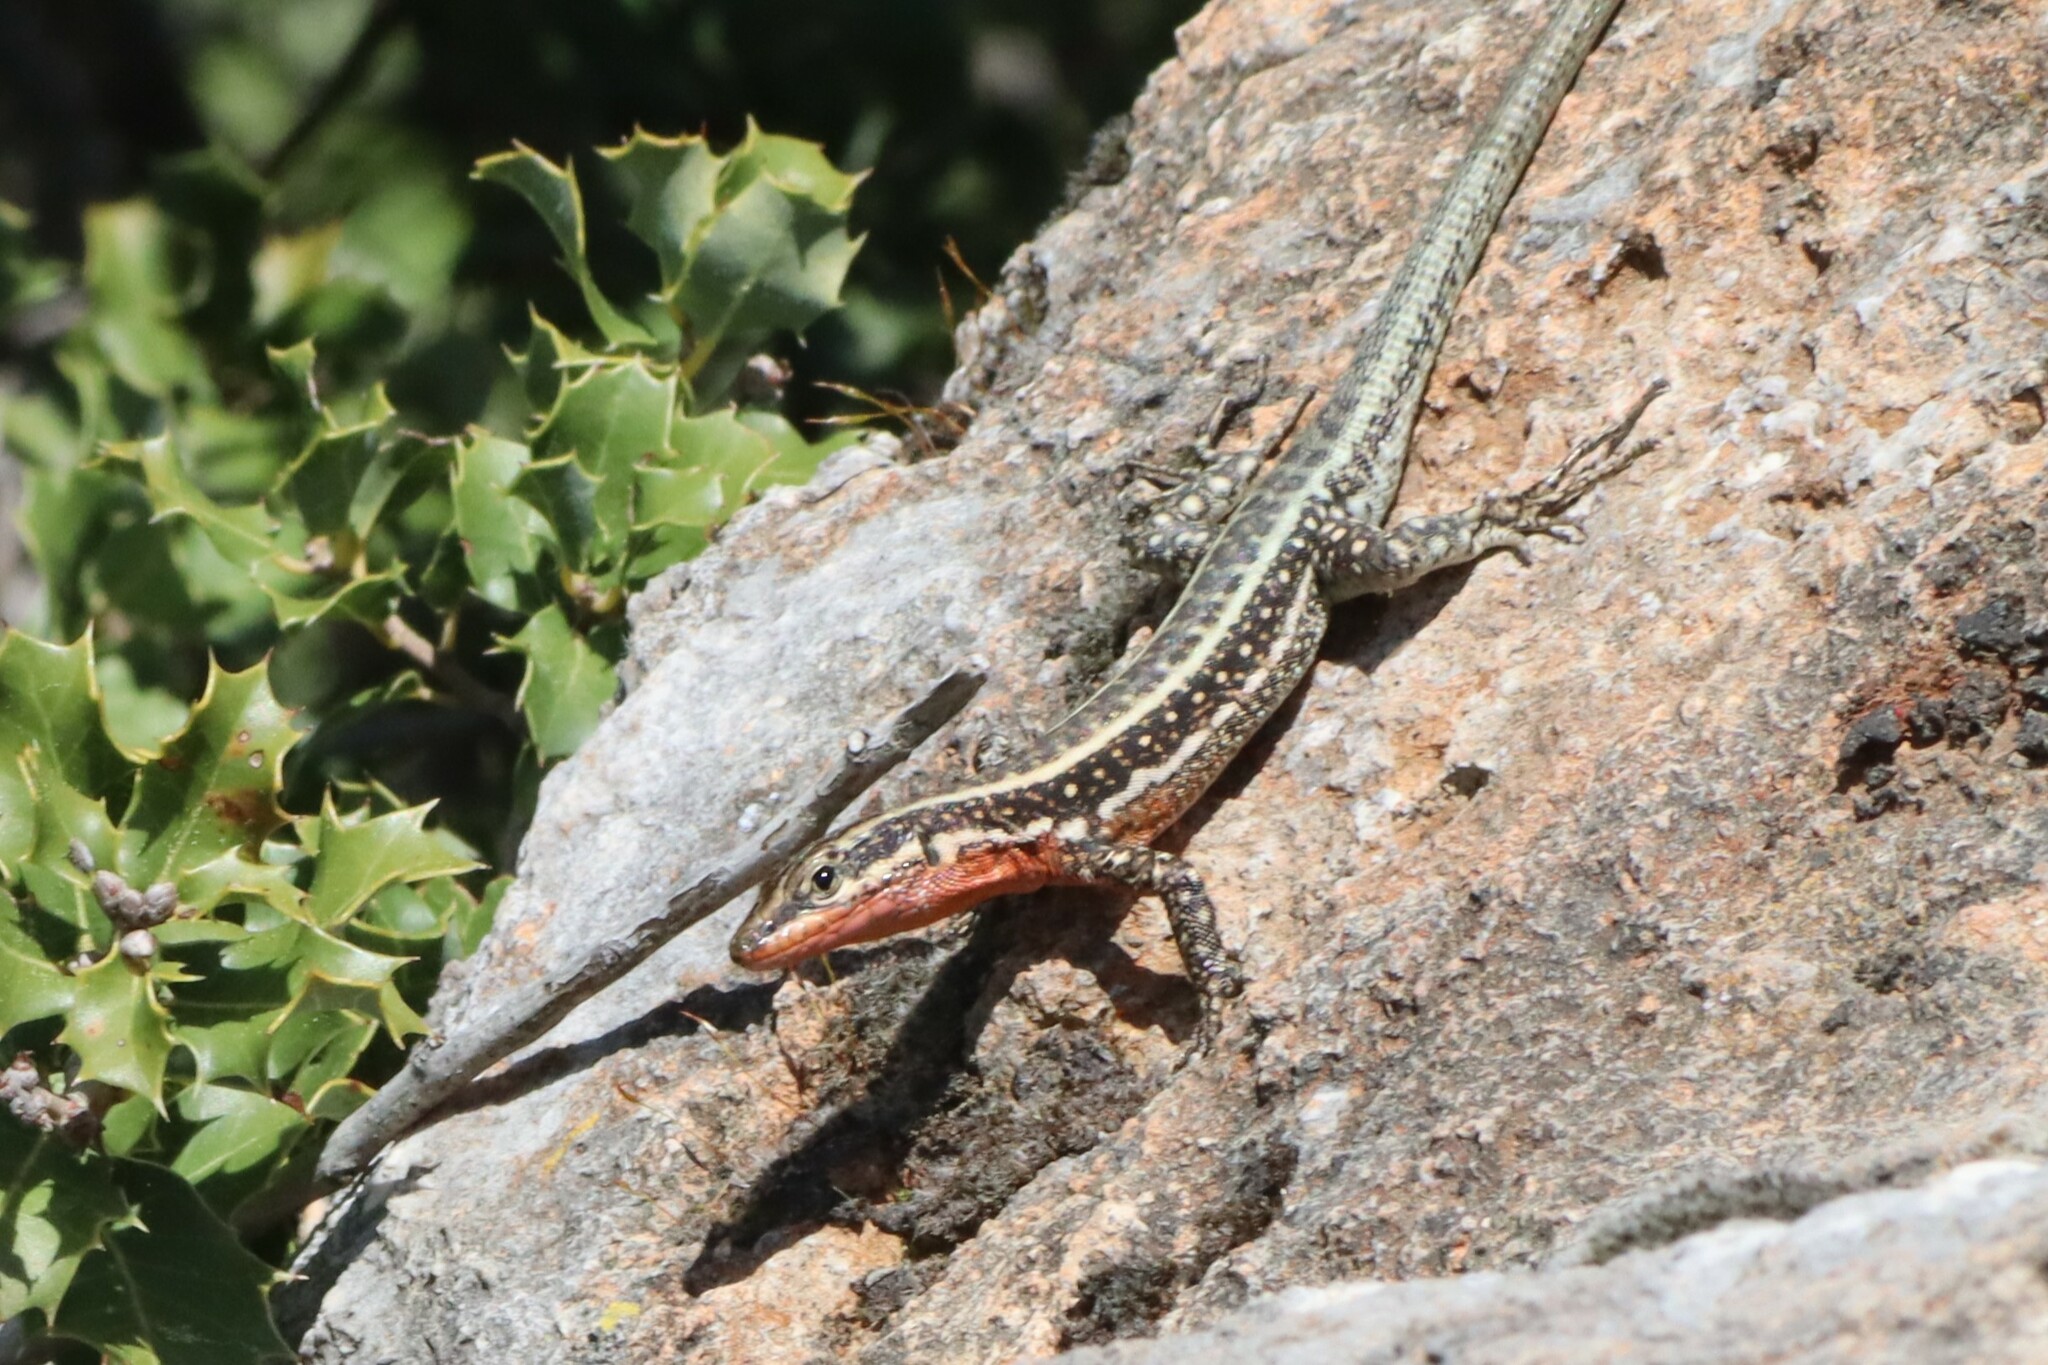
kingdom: Animalia
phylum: Chordata
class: Squamata
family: Lacertidae
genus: Anatololacerta
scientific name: Anatololacerta finikensis
